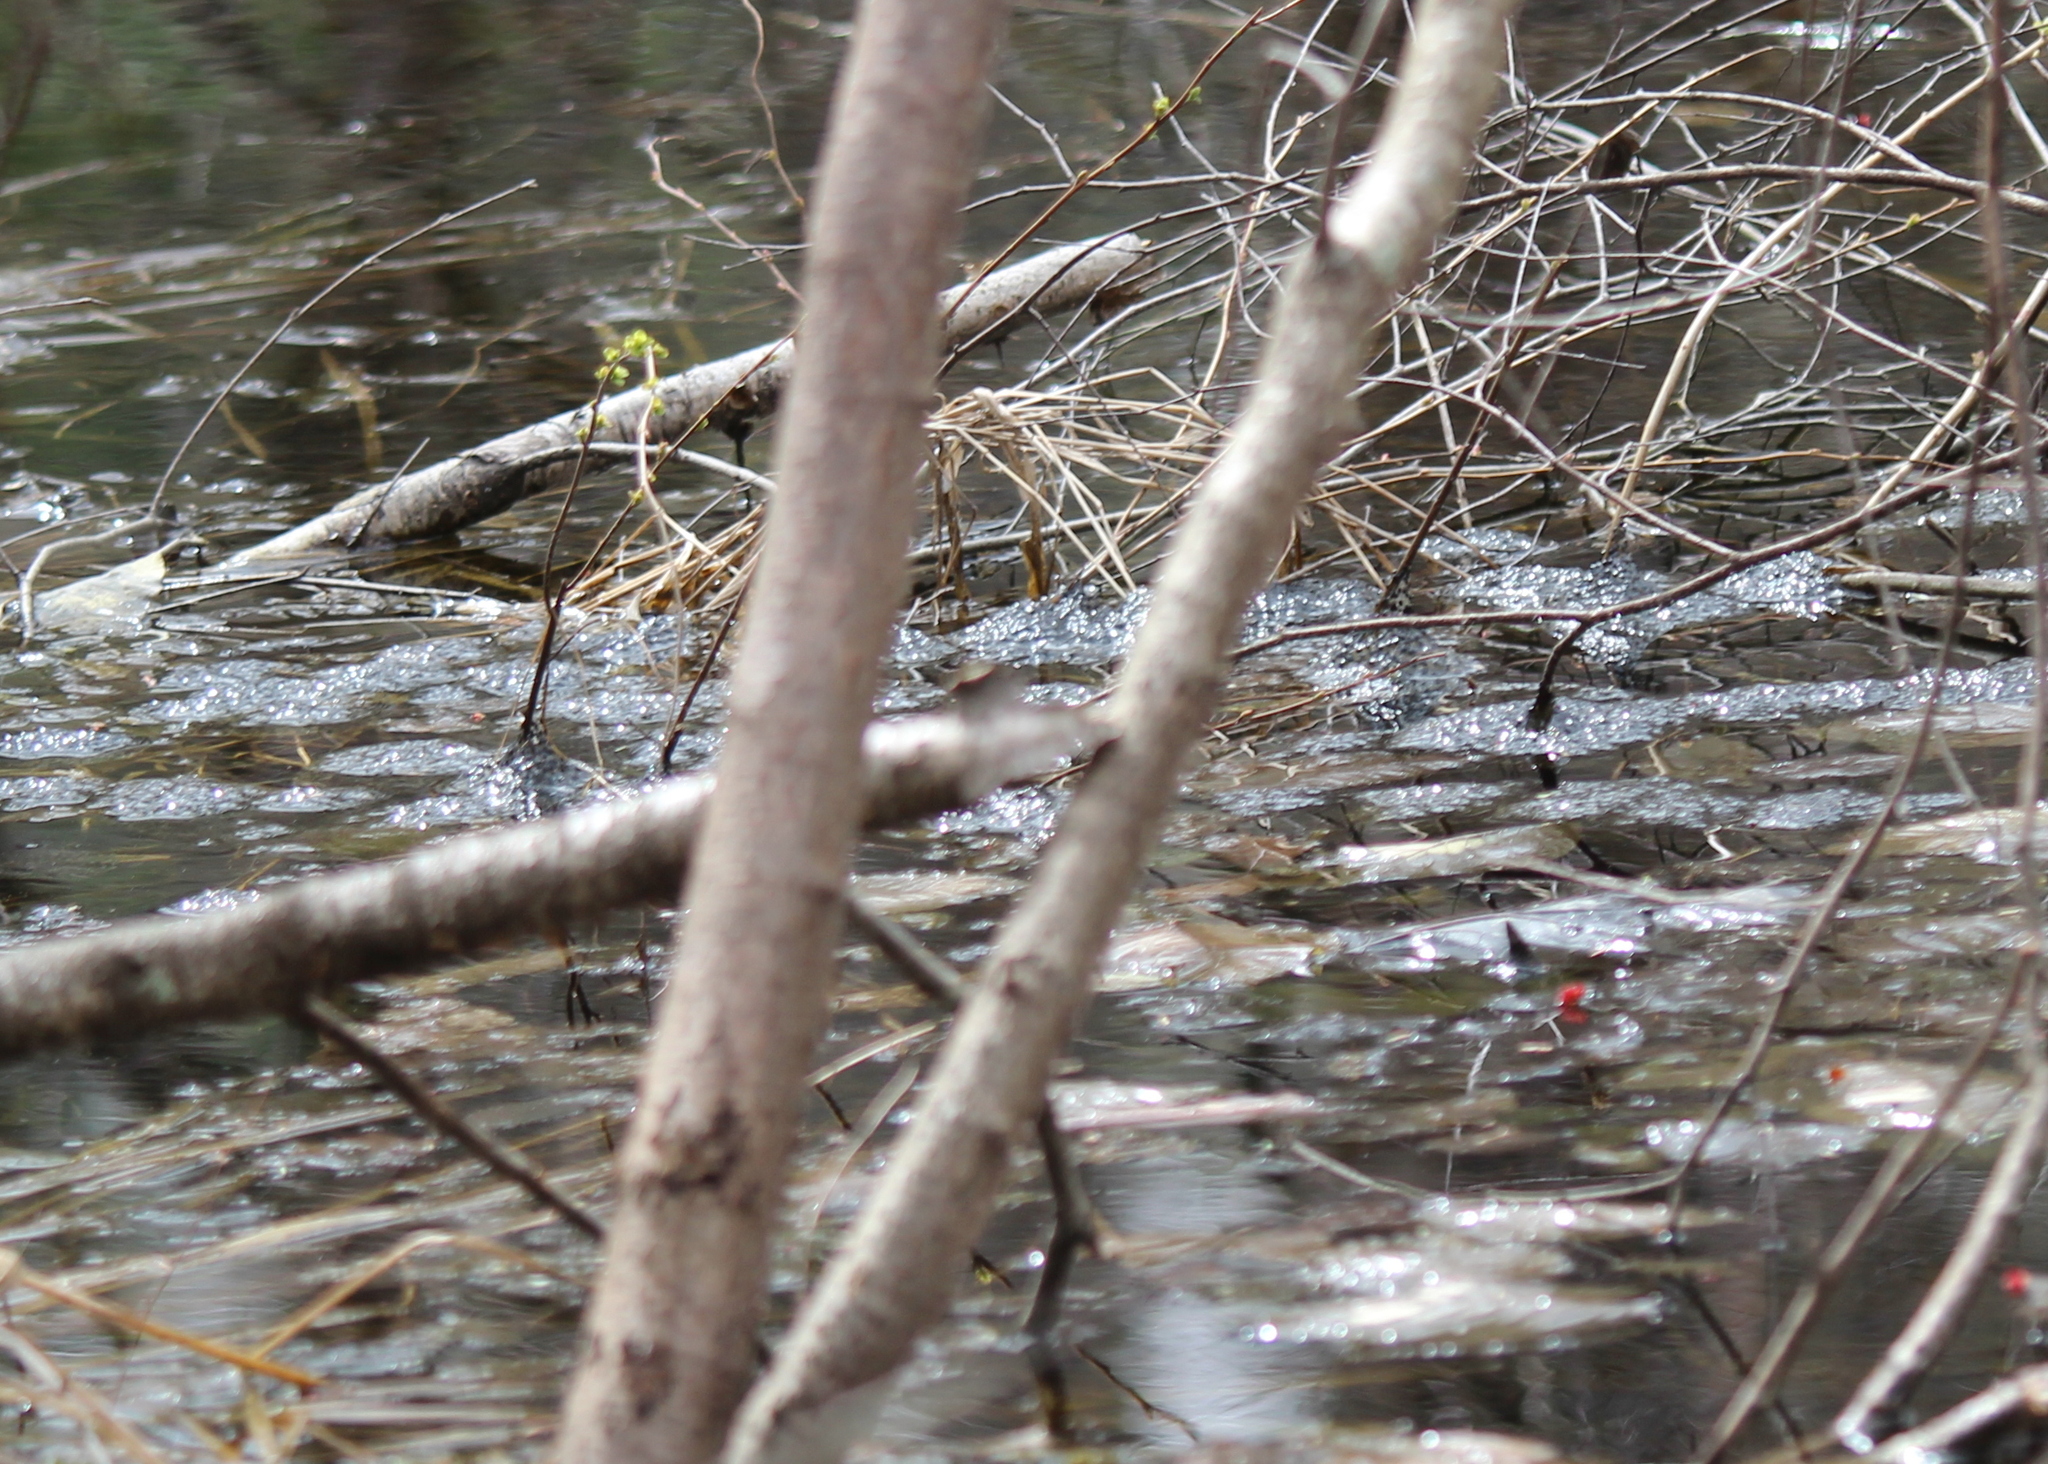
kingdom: Animalia
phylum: Chordata
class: Amphibia
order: Anura
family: Ranidae
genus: Lithobates
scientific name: Lithobates sylvaticus
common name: Wood frog
